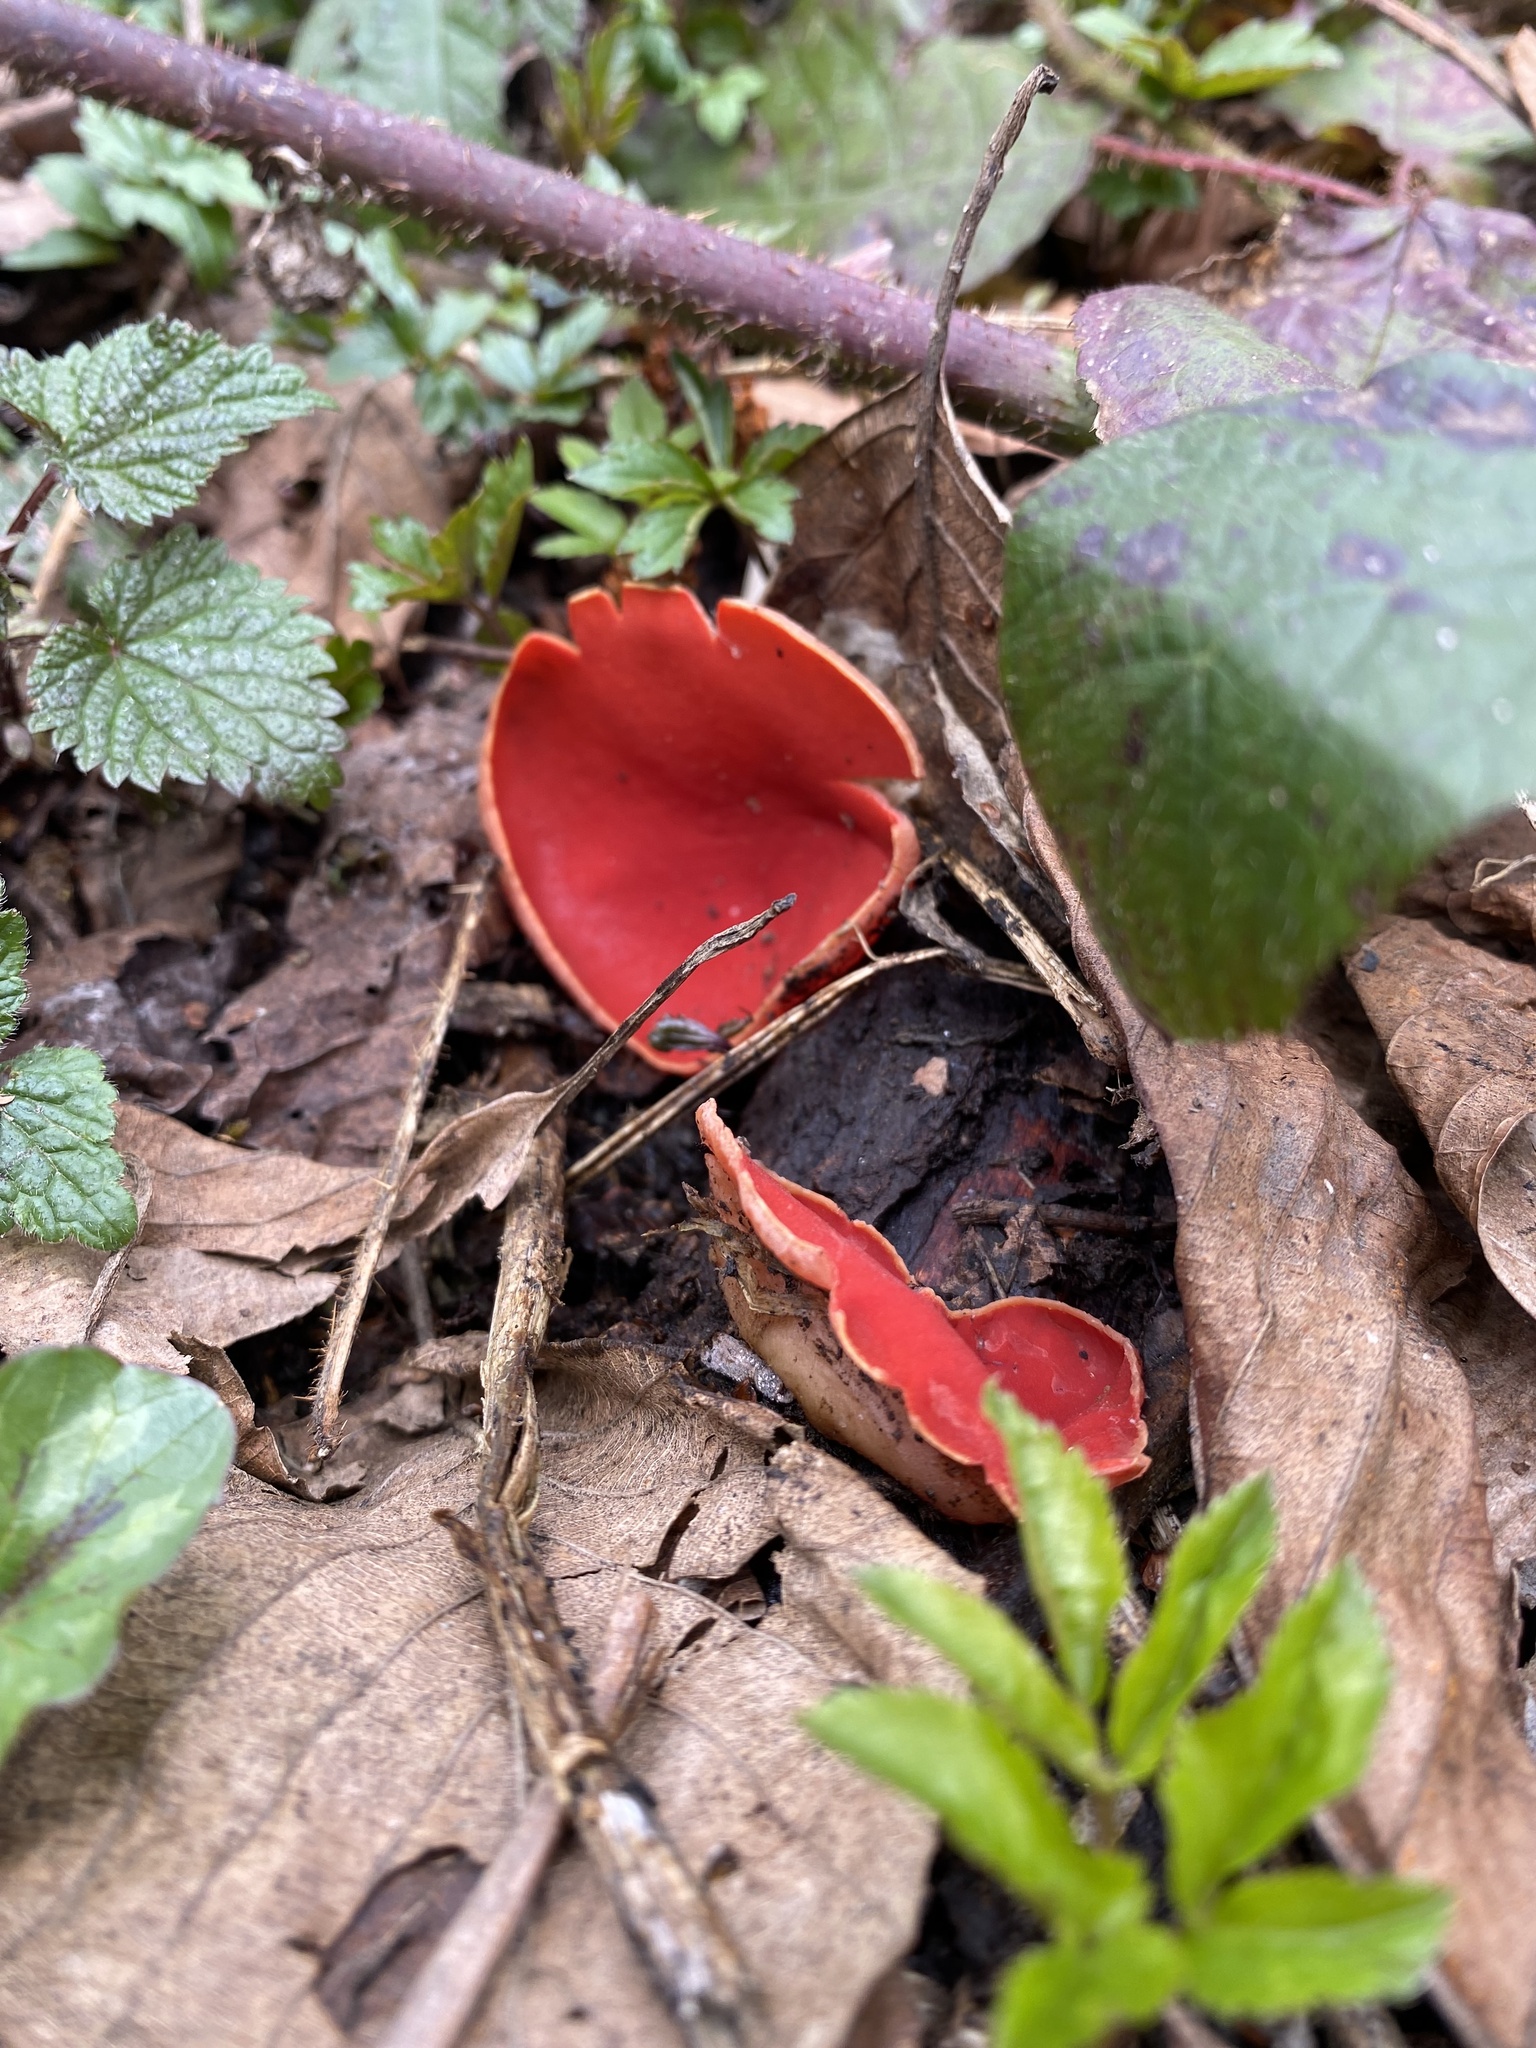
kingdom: Fungi
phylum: Ascomycota
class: Pezizomycetes
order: Pezizales
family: Sarcoscyphaceae
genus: Sarcoscypha
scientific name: Sarcoscypha coccinea
